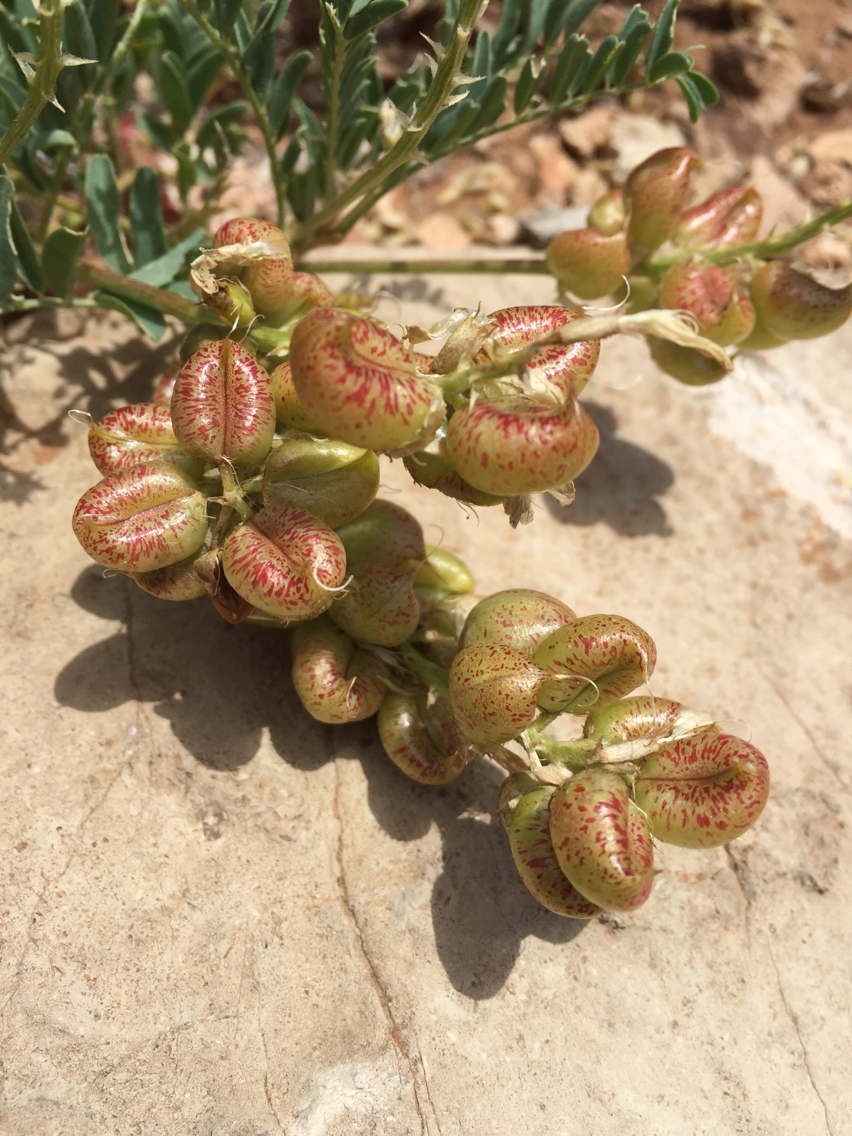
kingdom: Plantae
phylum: Tracheophyta
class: Magnoliopsida
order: Fabales
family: Fabaceae
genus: Astragalus
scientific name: Astragalus lentiginosus
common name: Freckled milkvetch
